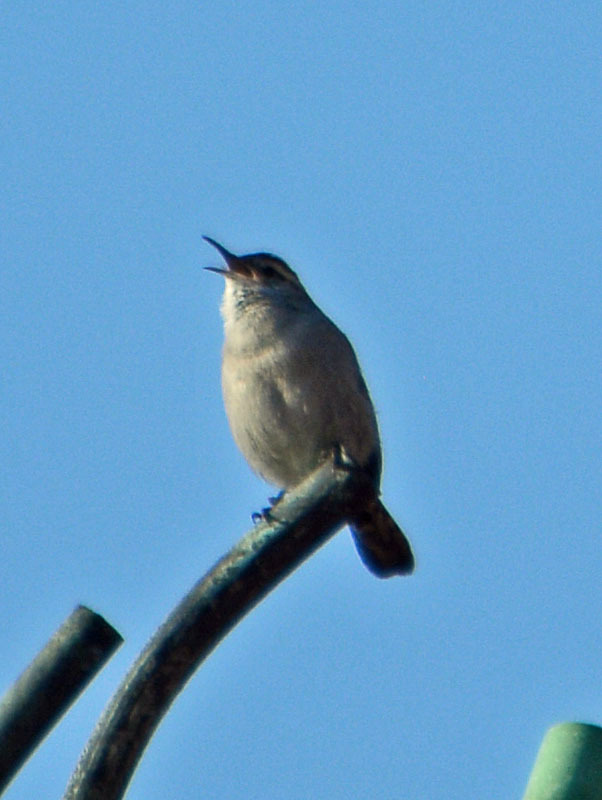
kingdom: Animalia
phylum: Chordata
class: Aves
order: Passeriformes
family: Troglodytidae
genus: Thryomanes
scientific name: Thryomanes bewickii
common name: Bewick's wren
